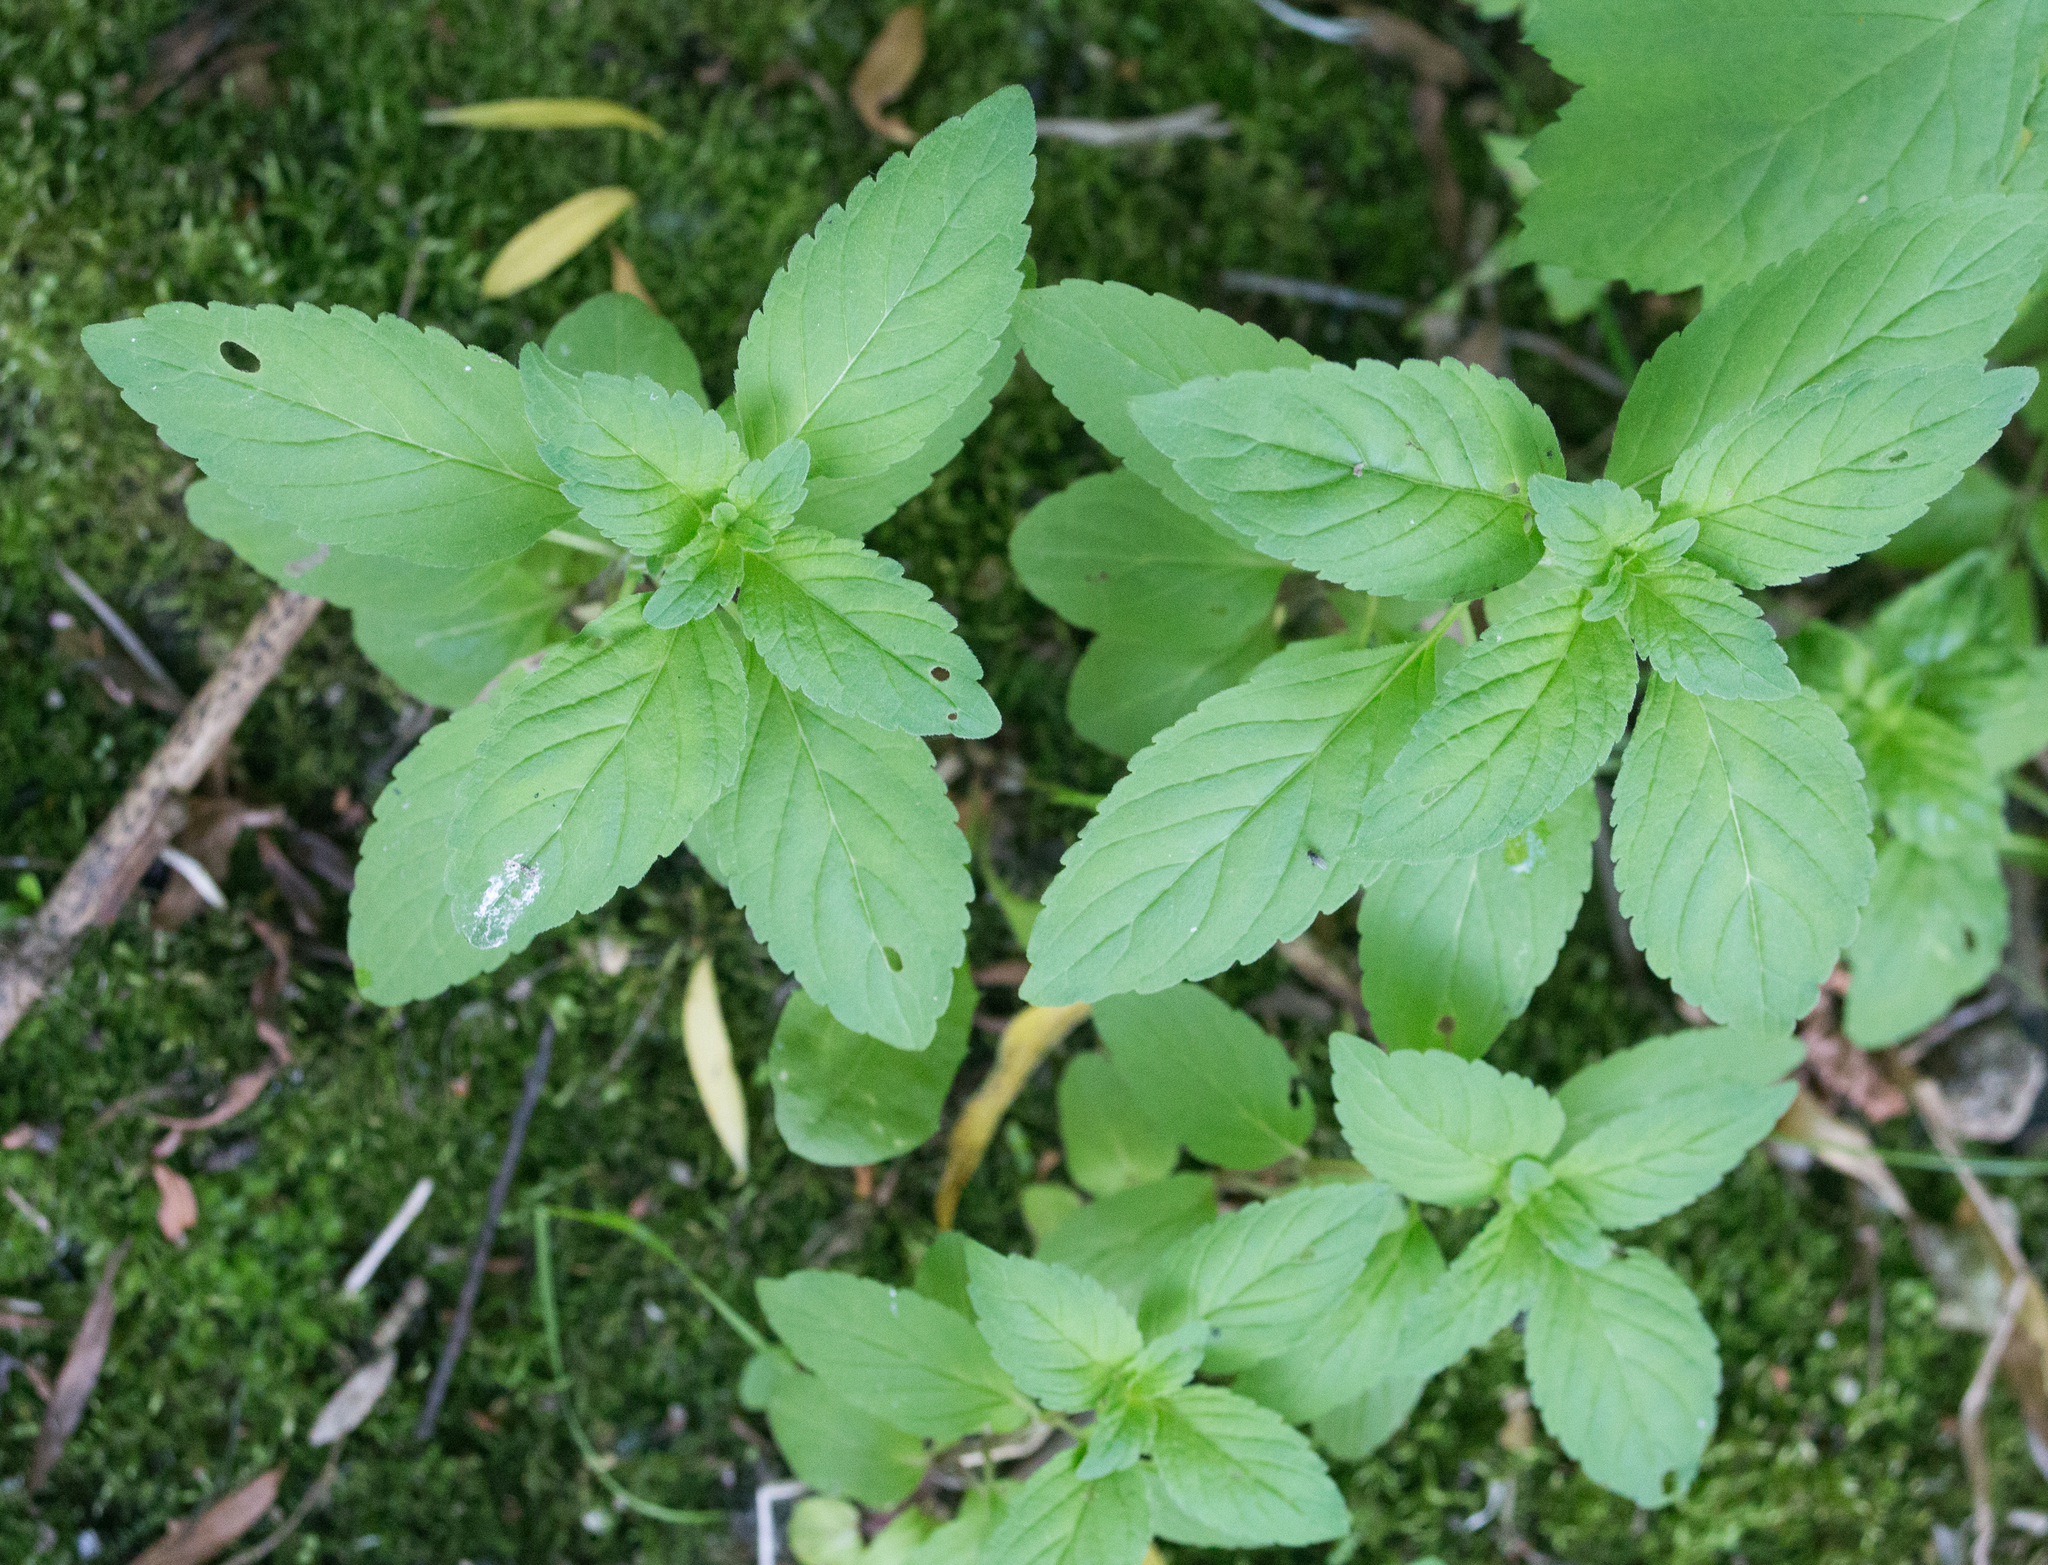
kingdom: Plantae
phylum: Tracheophyta
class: Magnoliopsida
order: Lamiales
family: Lamiaceae
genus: Mentha
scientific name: Mentha arvensis
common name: Corn mint
